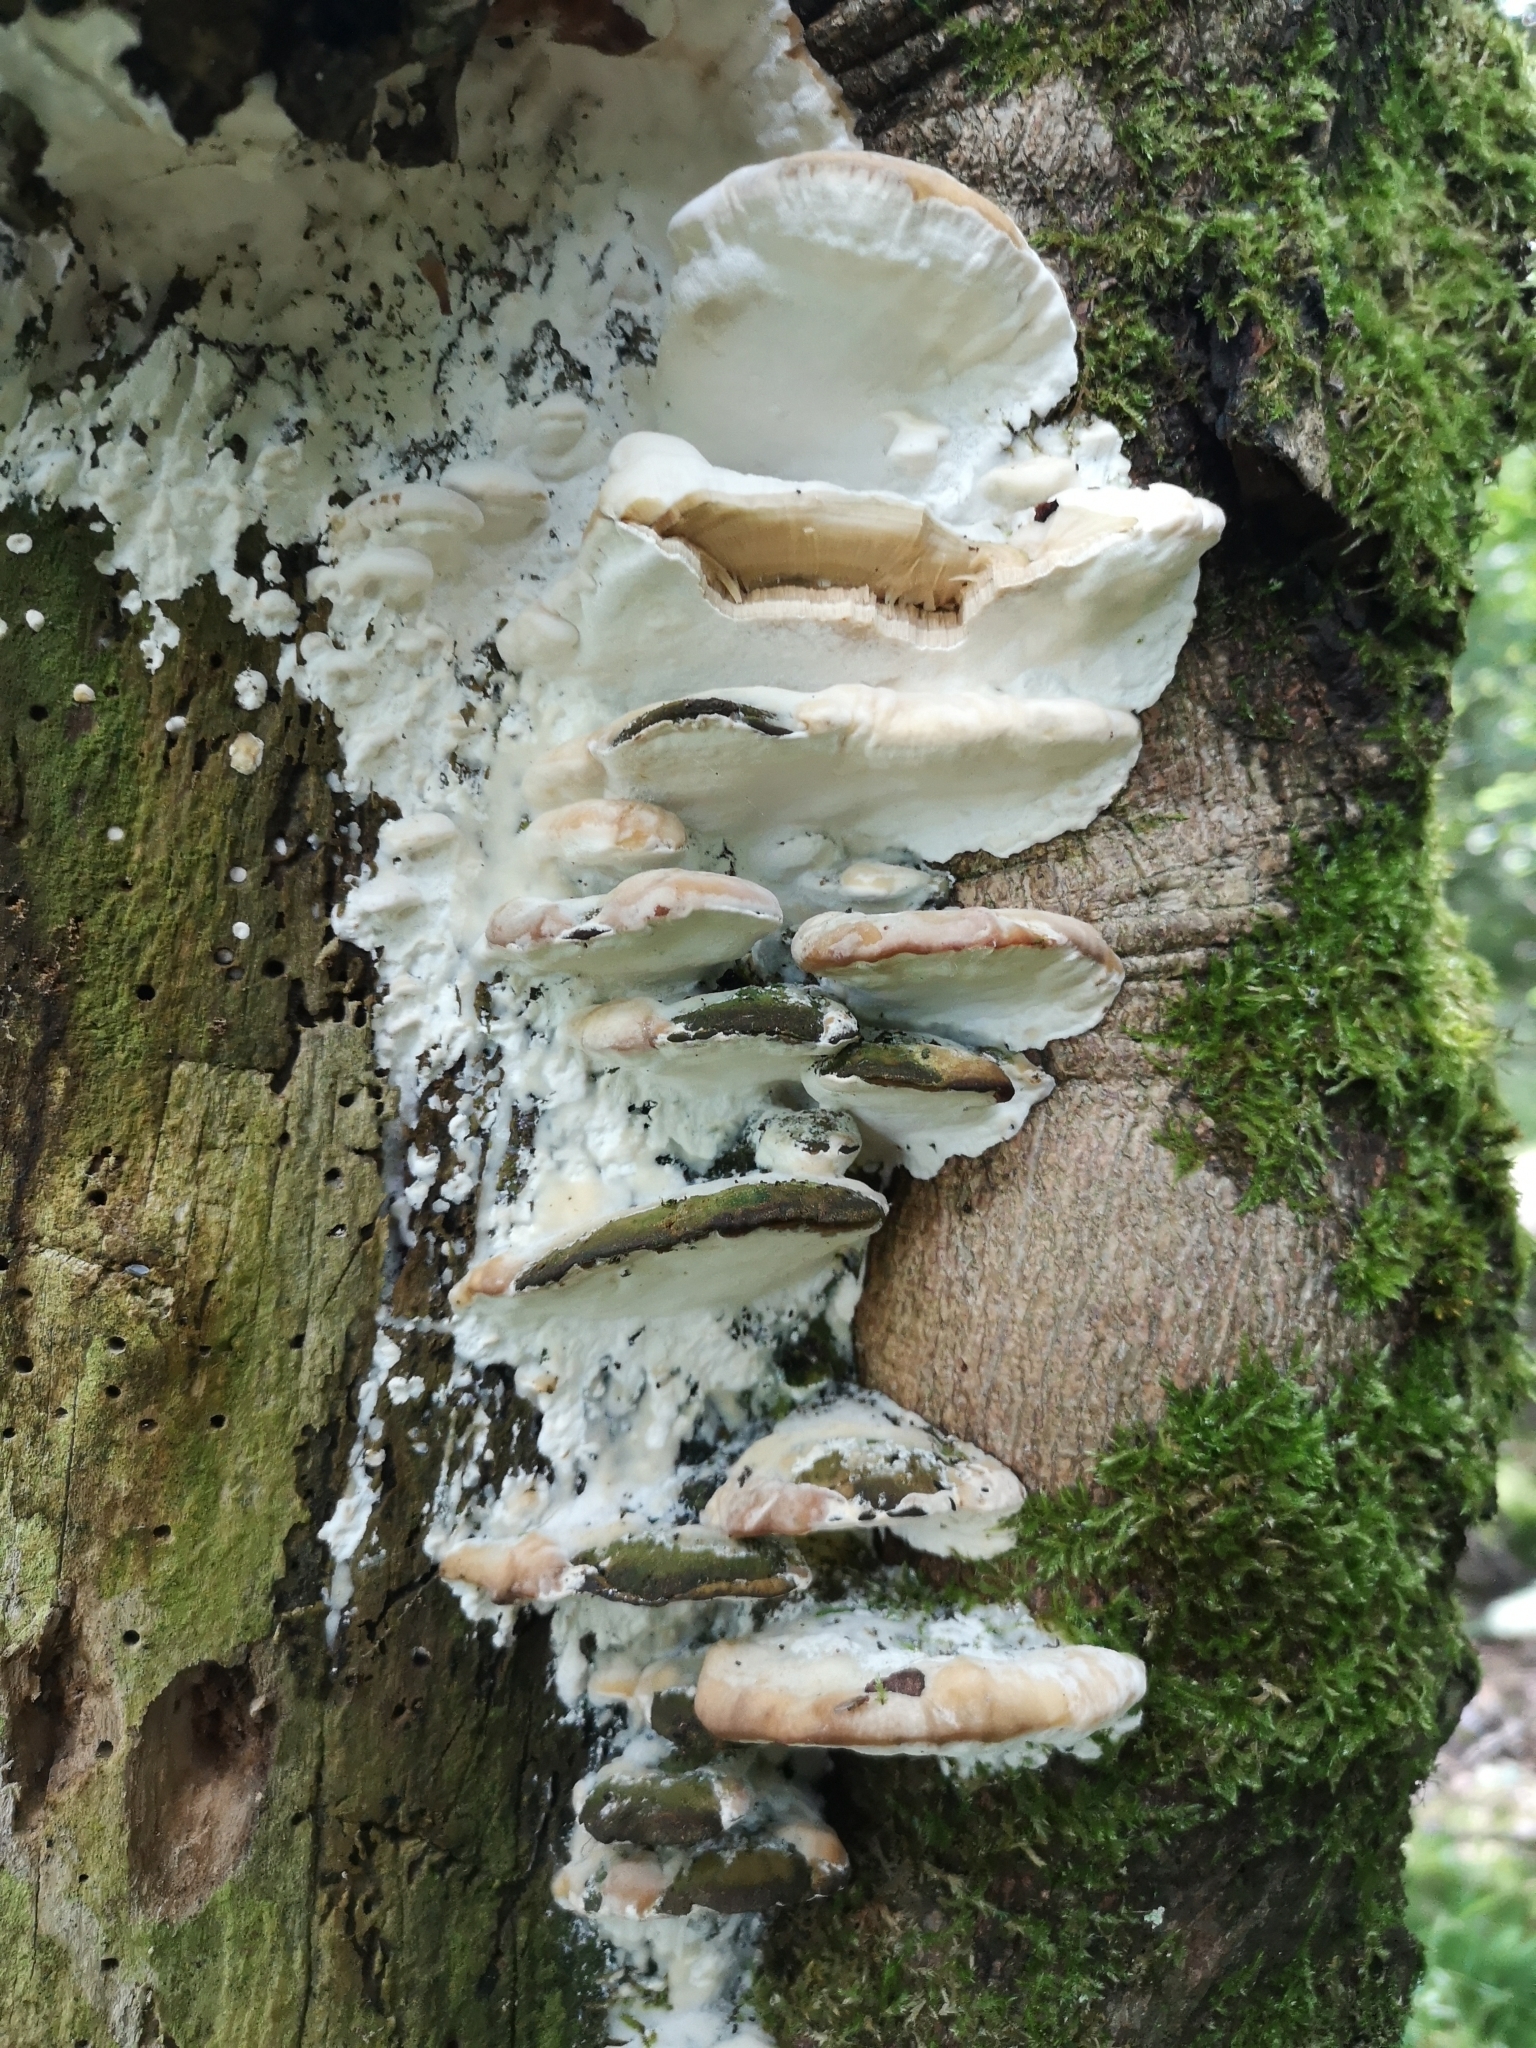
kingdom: Fungi
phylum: Basidiomycota
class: Agaricomycetes
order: Hymenochaetales
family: Oxyporaceae
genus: Oxyporus
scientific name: Oxyporus populinus
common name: Poplar bracket
